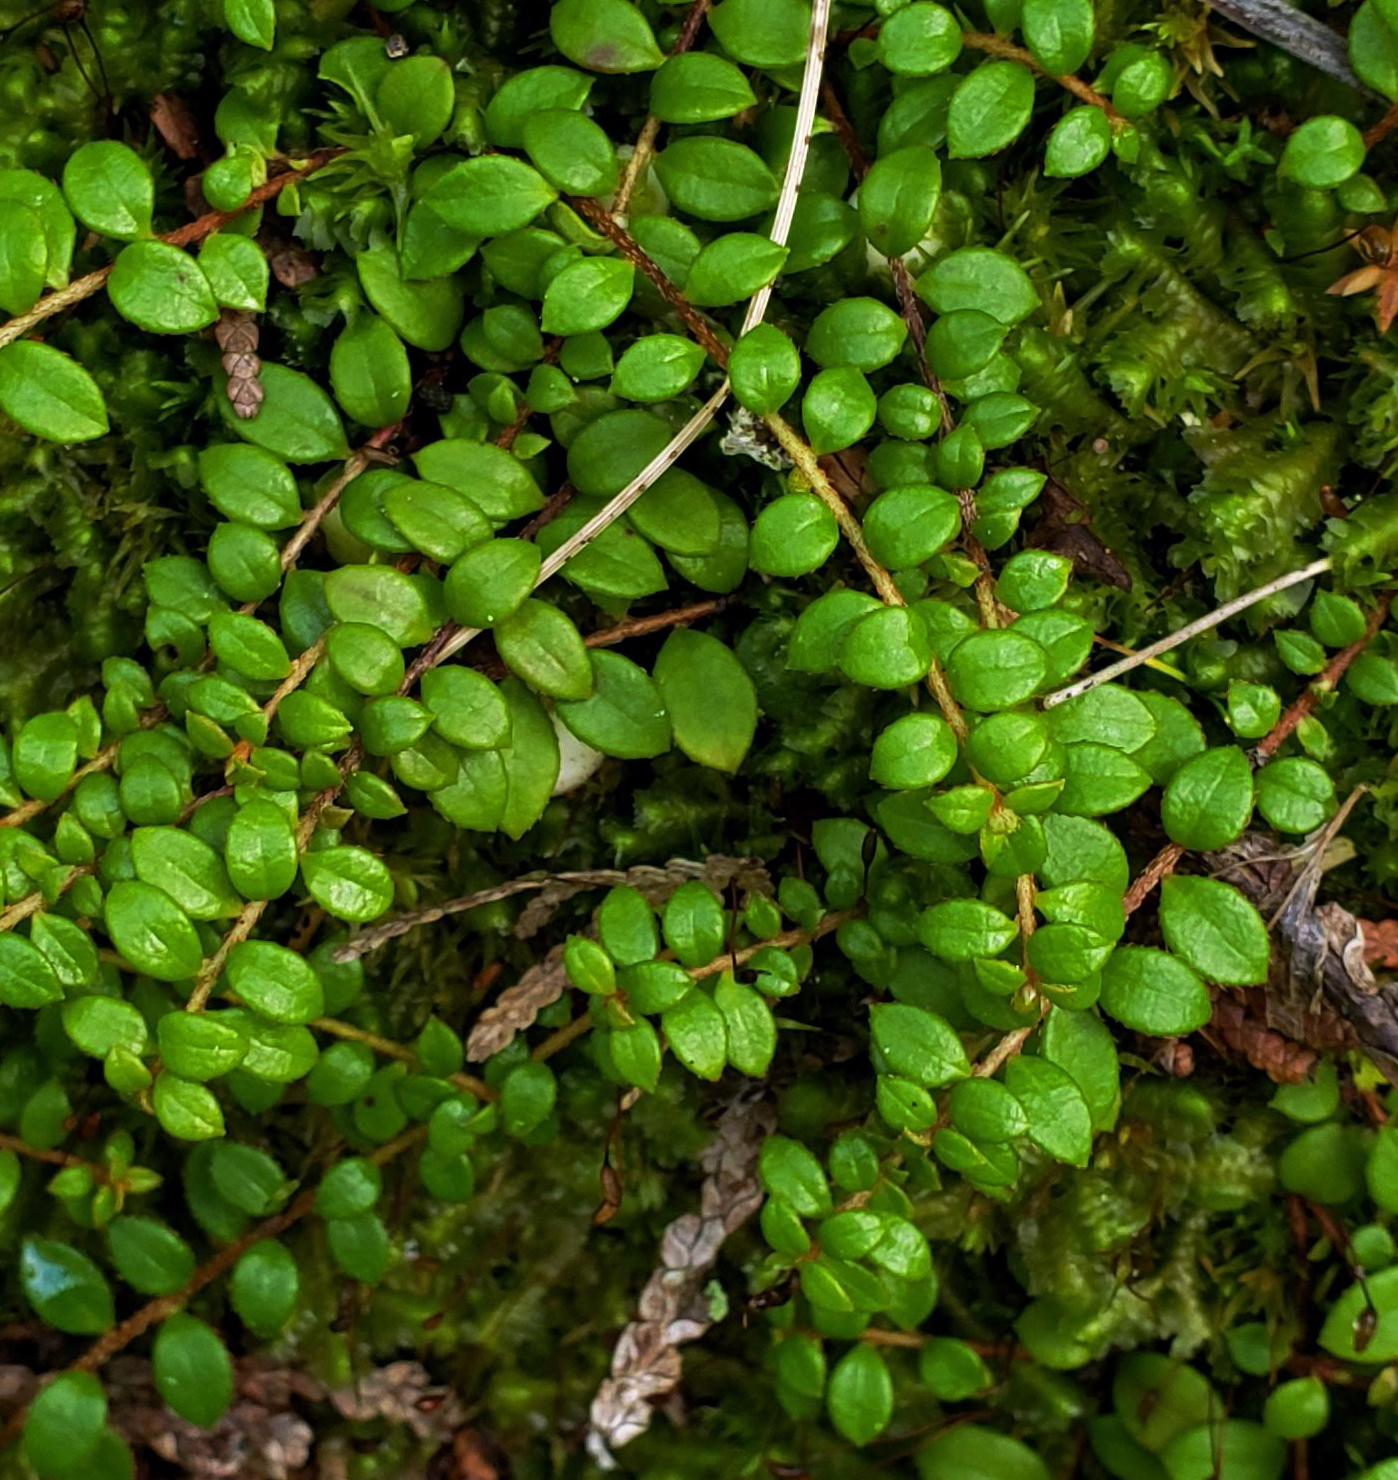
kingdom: Plantae
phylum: Tracheophyta
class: Magnoliopsida
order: Ericales
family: Ericaceae
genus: Gaultheria
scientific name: Gaultheria hispidula
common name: Cancer wintergreen
